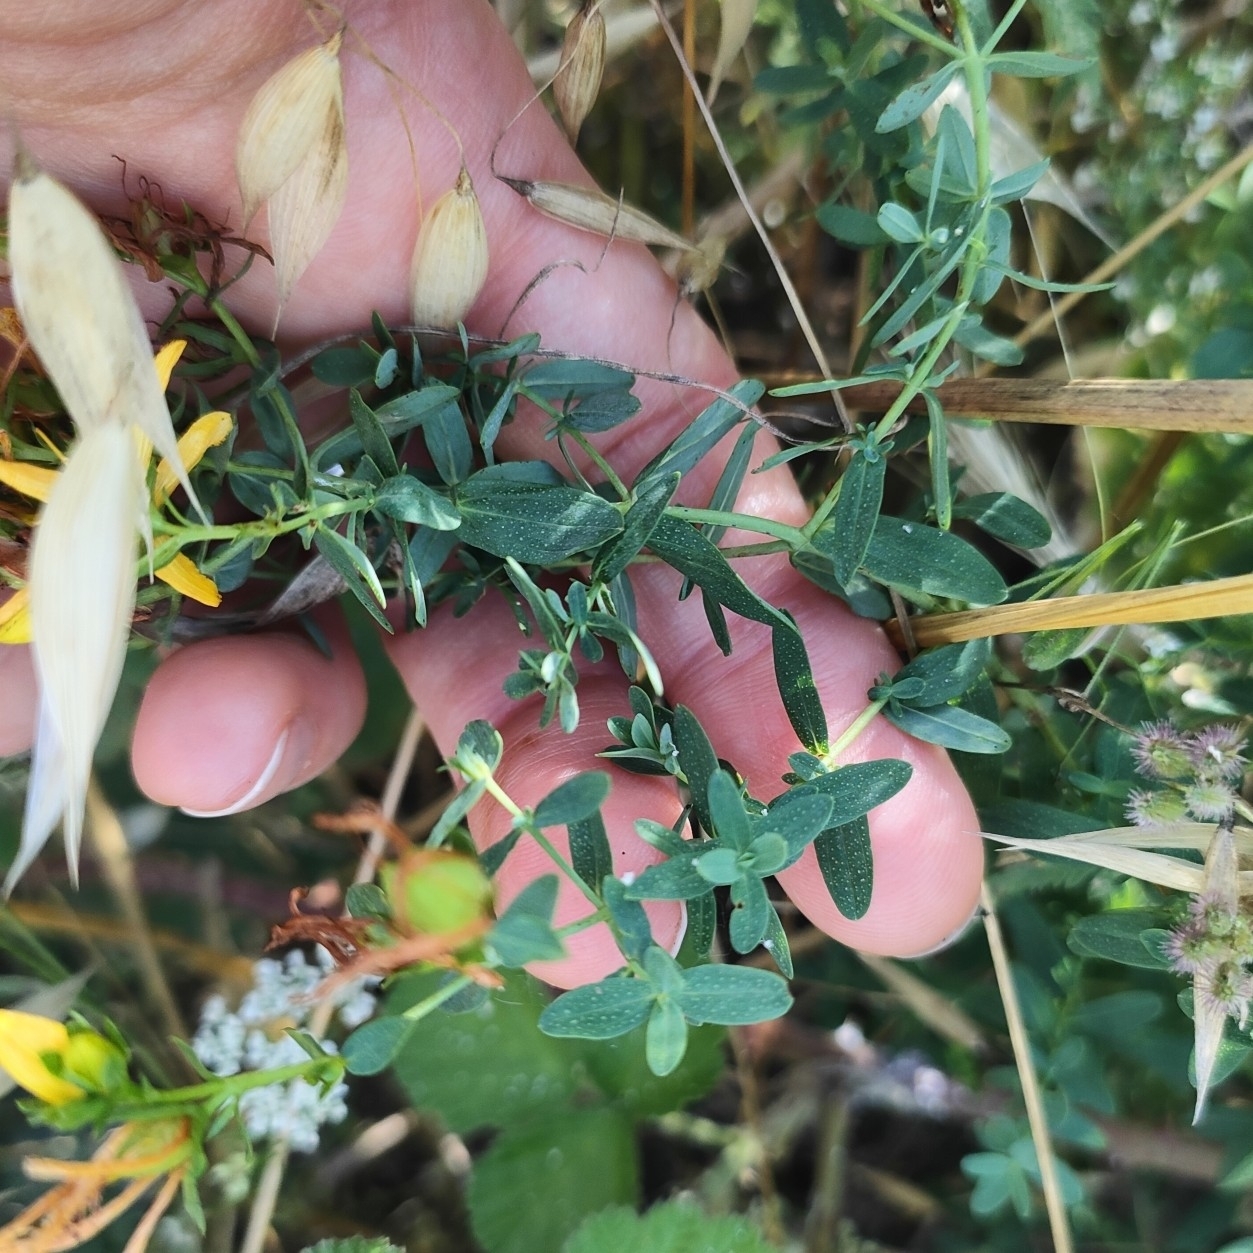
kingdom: Plantae
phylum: Tracheophyta
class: Magnoliopsida
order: Malpighiales
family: Hypericaceae
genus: Hypericum
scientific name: Hypericum perforatum
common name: Common st. johnswort
